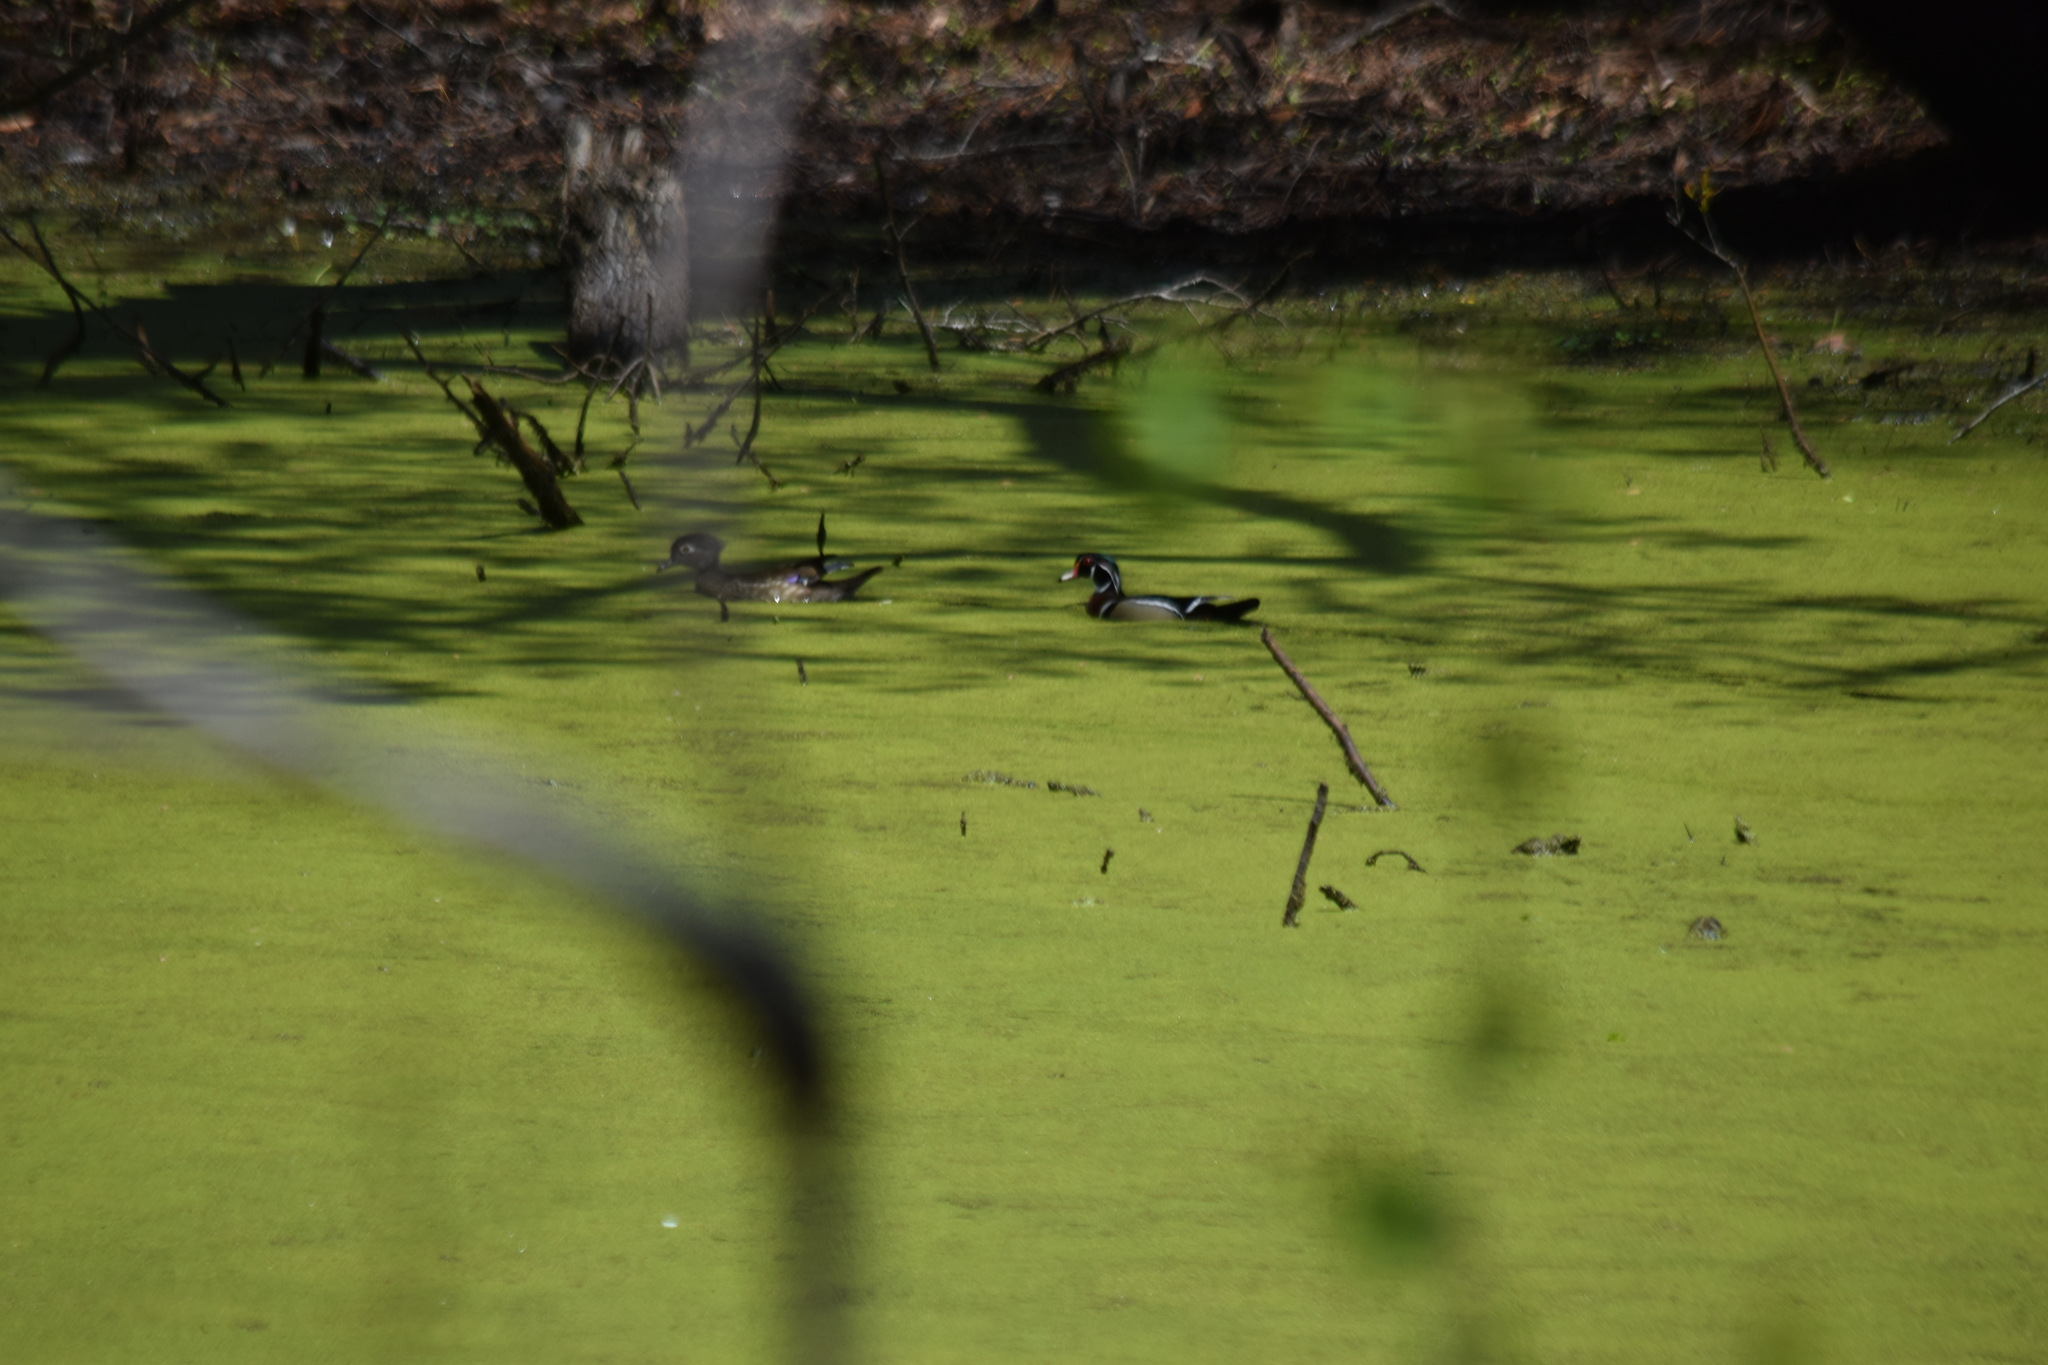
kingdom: Animalia
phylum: Chordata
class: Aves
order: Anseriformes
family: Anatidae
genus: Aix
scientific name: Aix sponsa
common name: Wood duck
